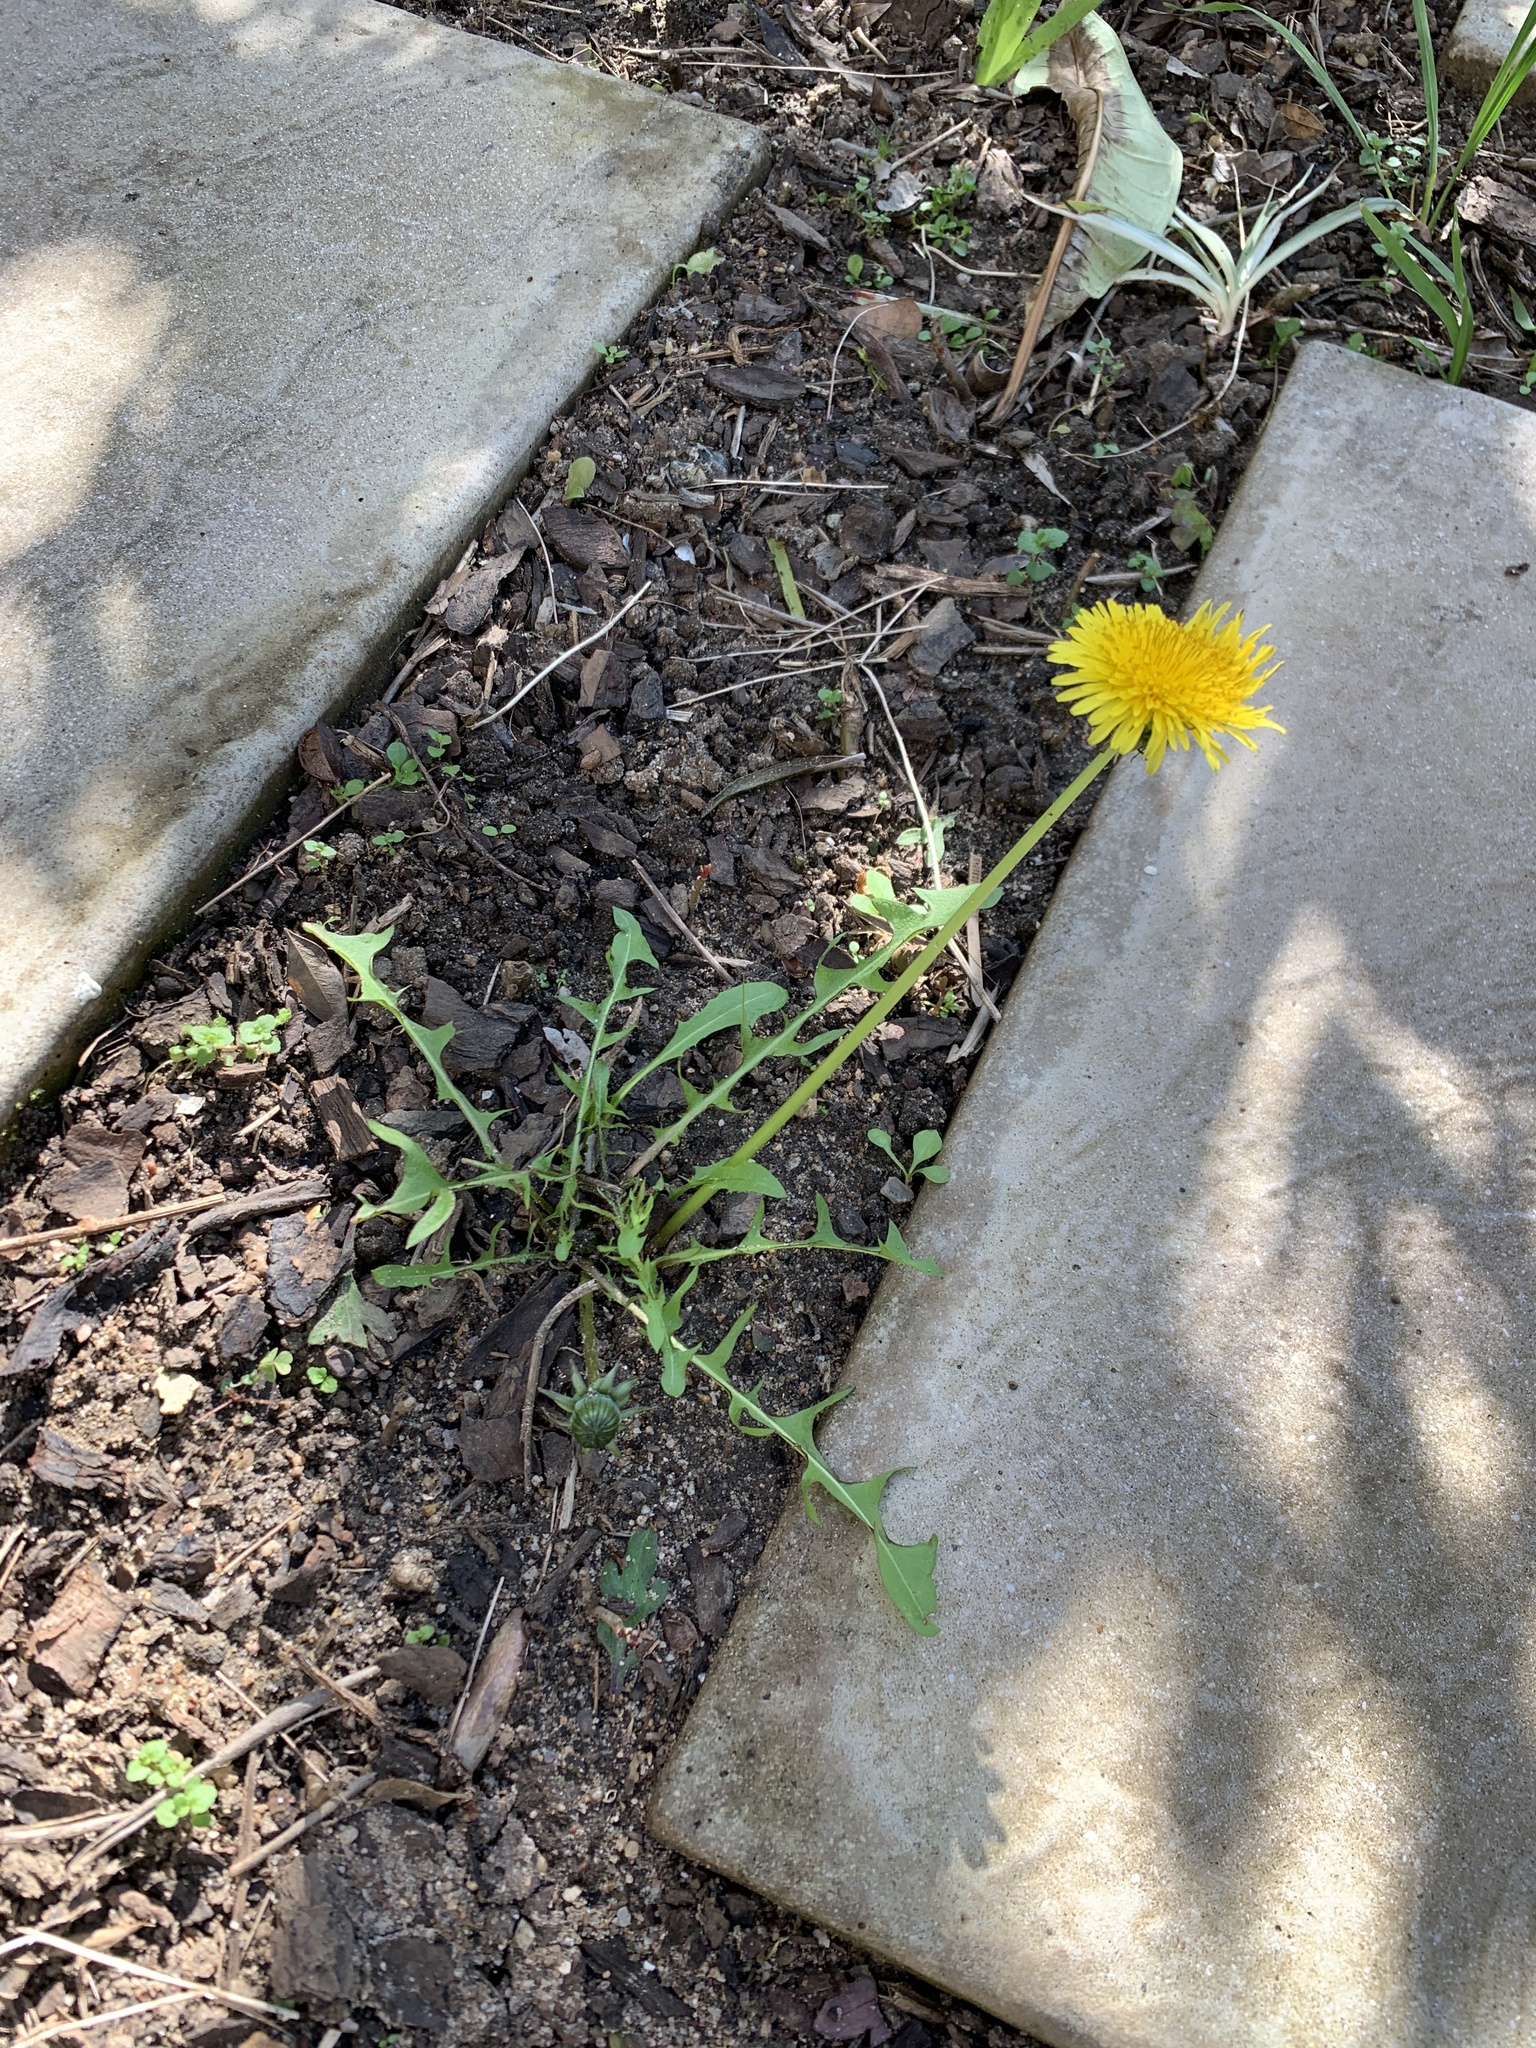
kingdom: Plantae
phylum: Tracheophyta
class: Magnoliopsida
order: Asterales
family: Asteraceae
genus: Taraxacum
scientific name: Taraxacum officinale
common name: Common dandelion
